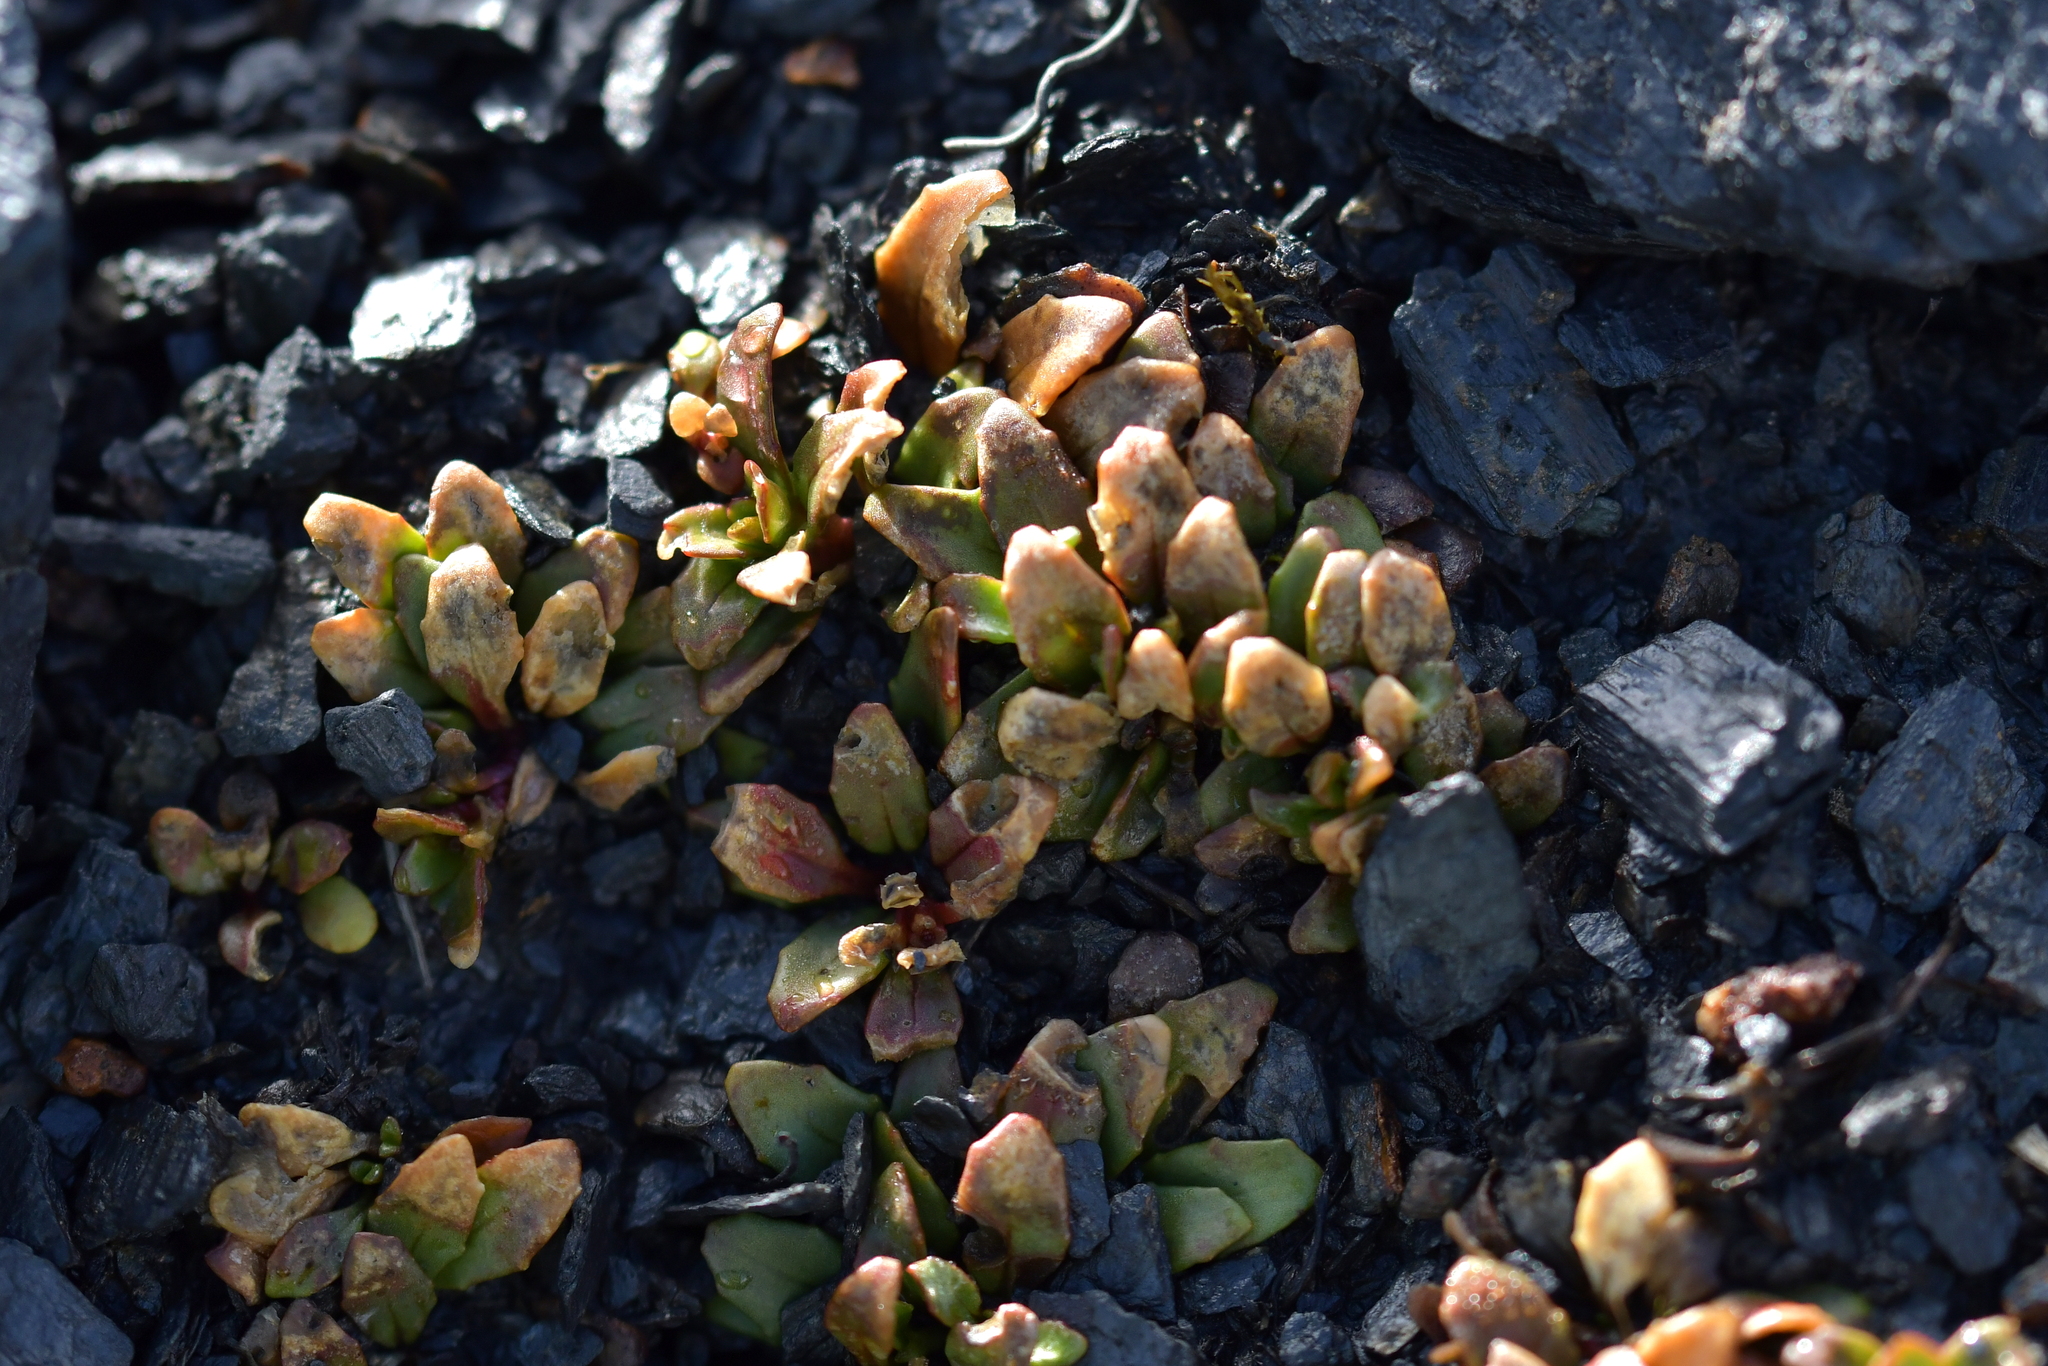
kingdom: Plantae
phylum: Tracheophyta
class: Magnoliopsida
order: Myrtales
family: Onagraceae
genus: Epilobium
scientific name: Epilobium margaretiae
